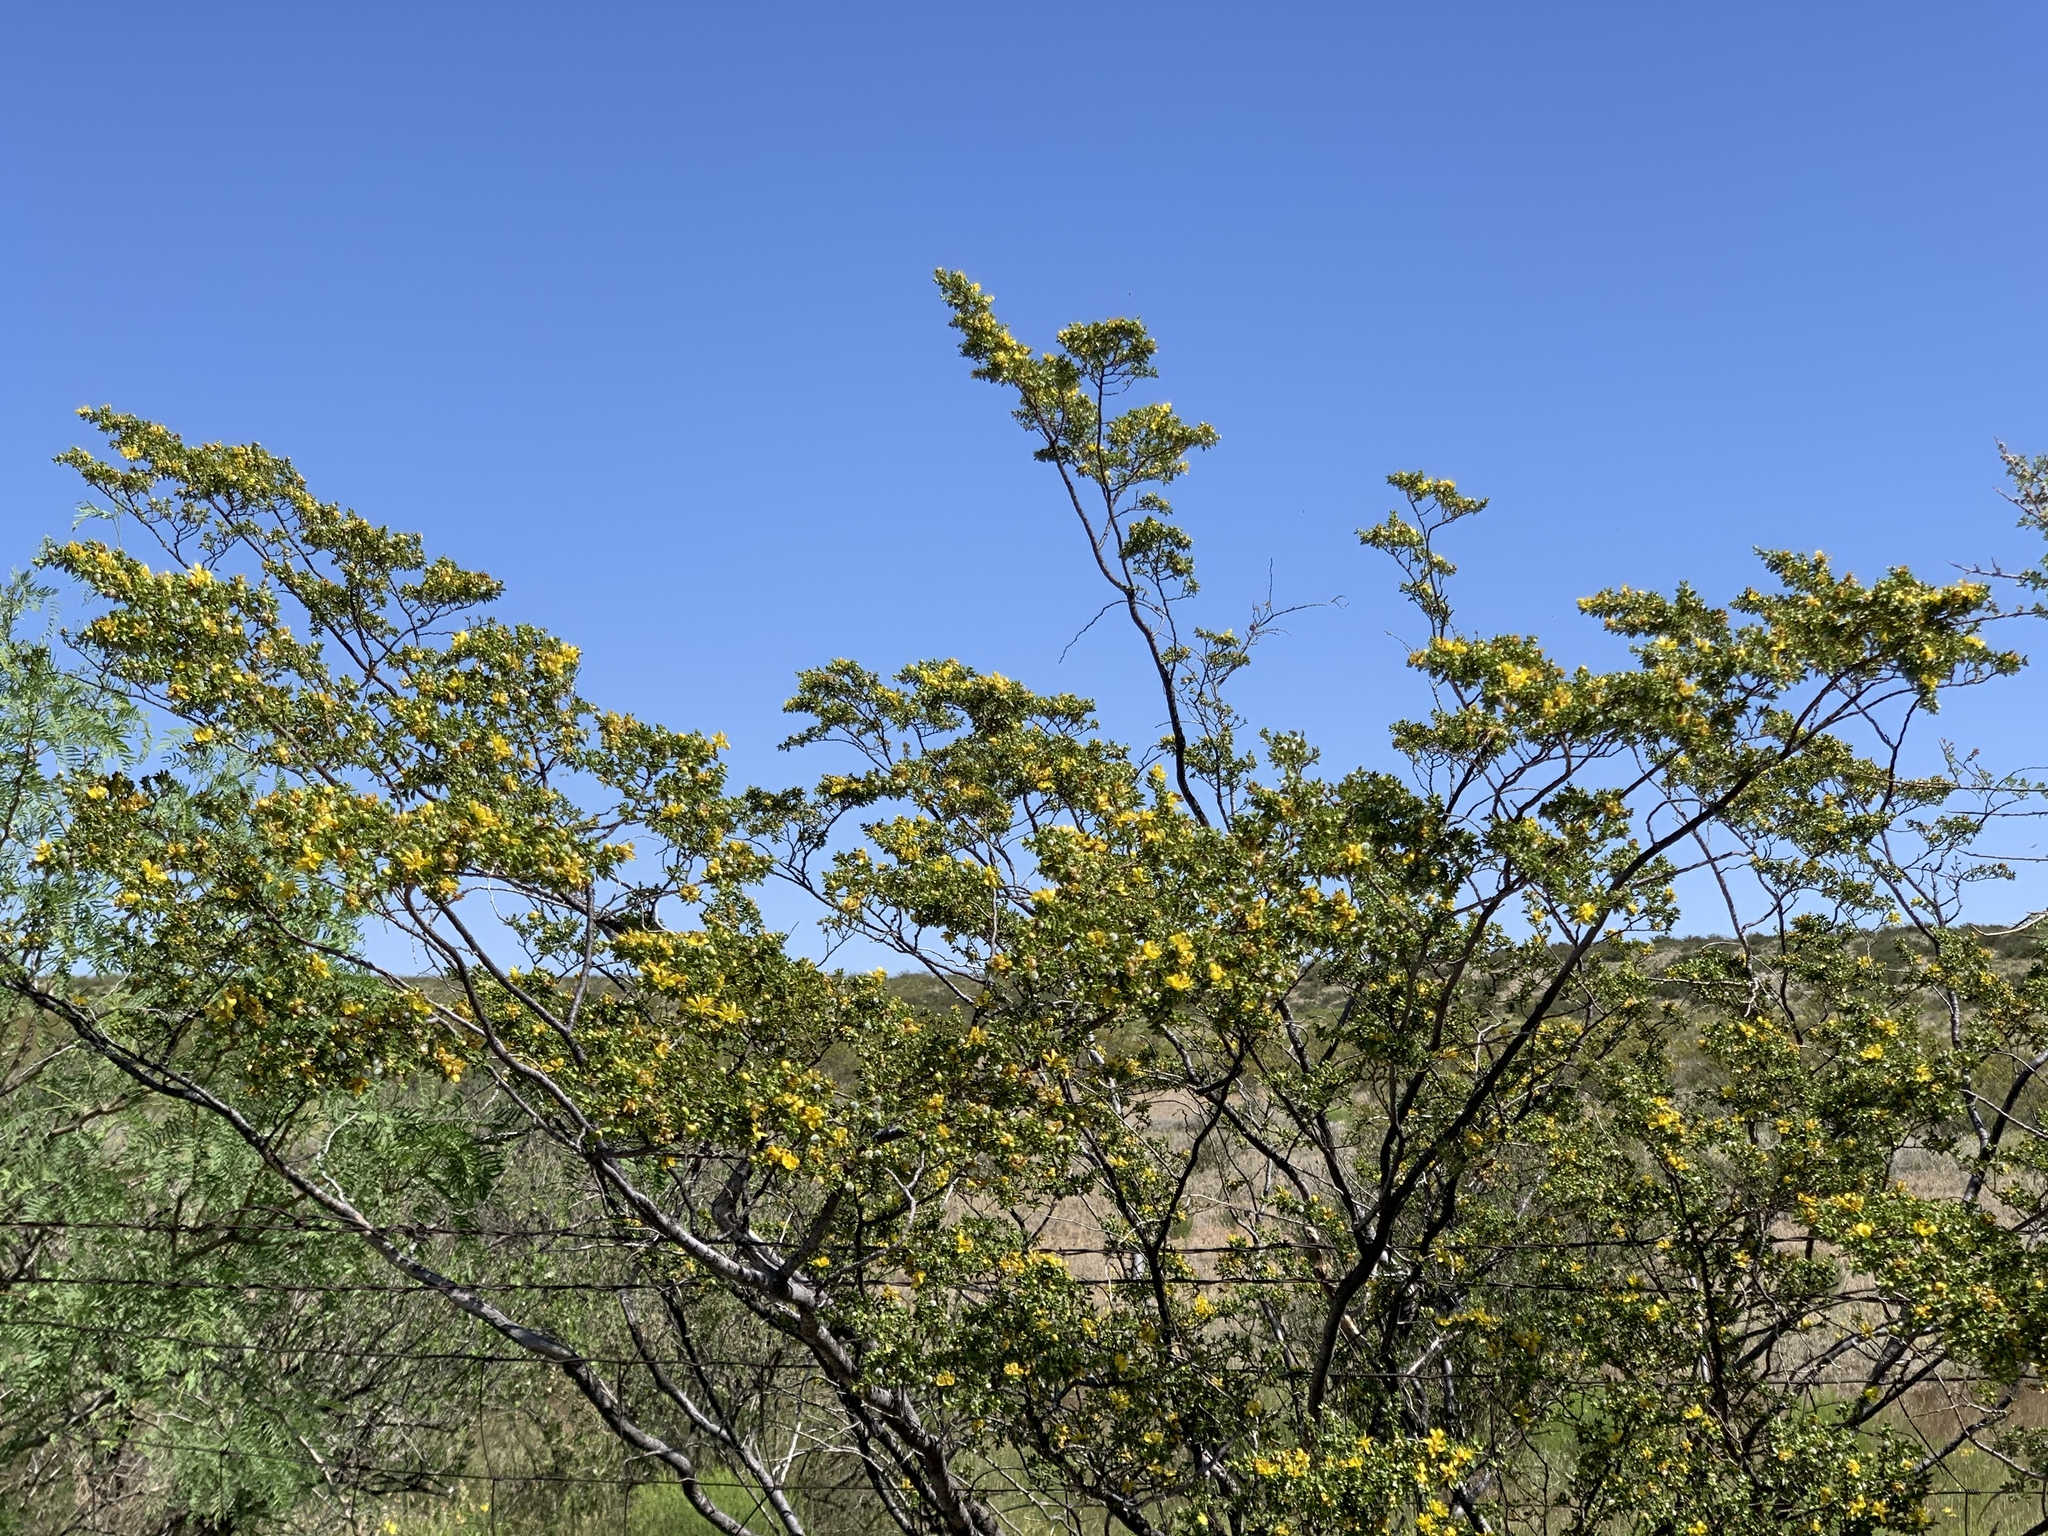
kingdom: Plantae
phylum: Tracheophyta
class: Magnoliopsida
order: Zygophyllales
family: Zygophyllaceae
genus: Larrea
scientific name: Larrea tridentata
